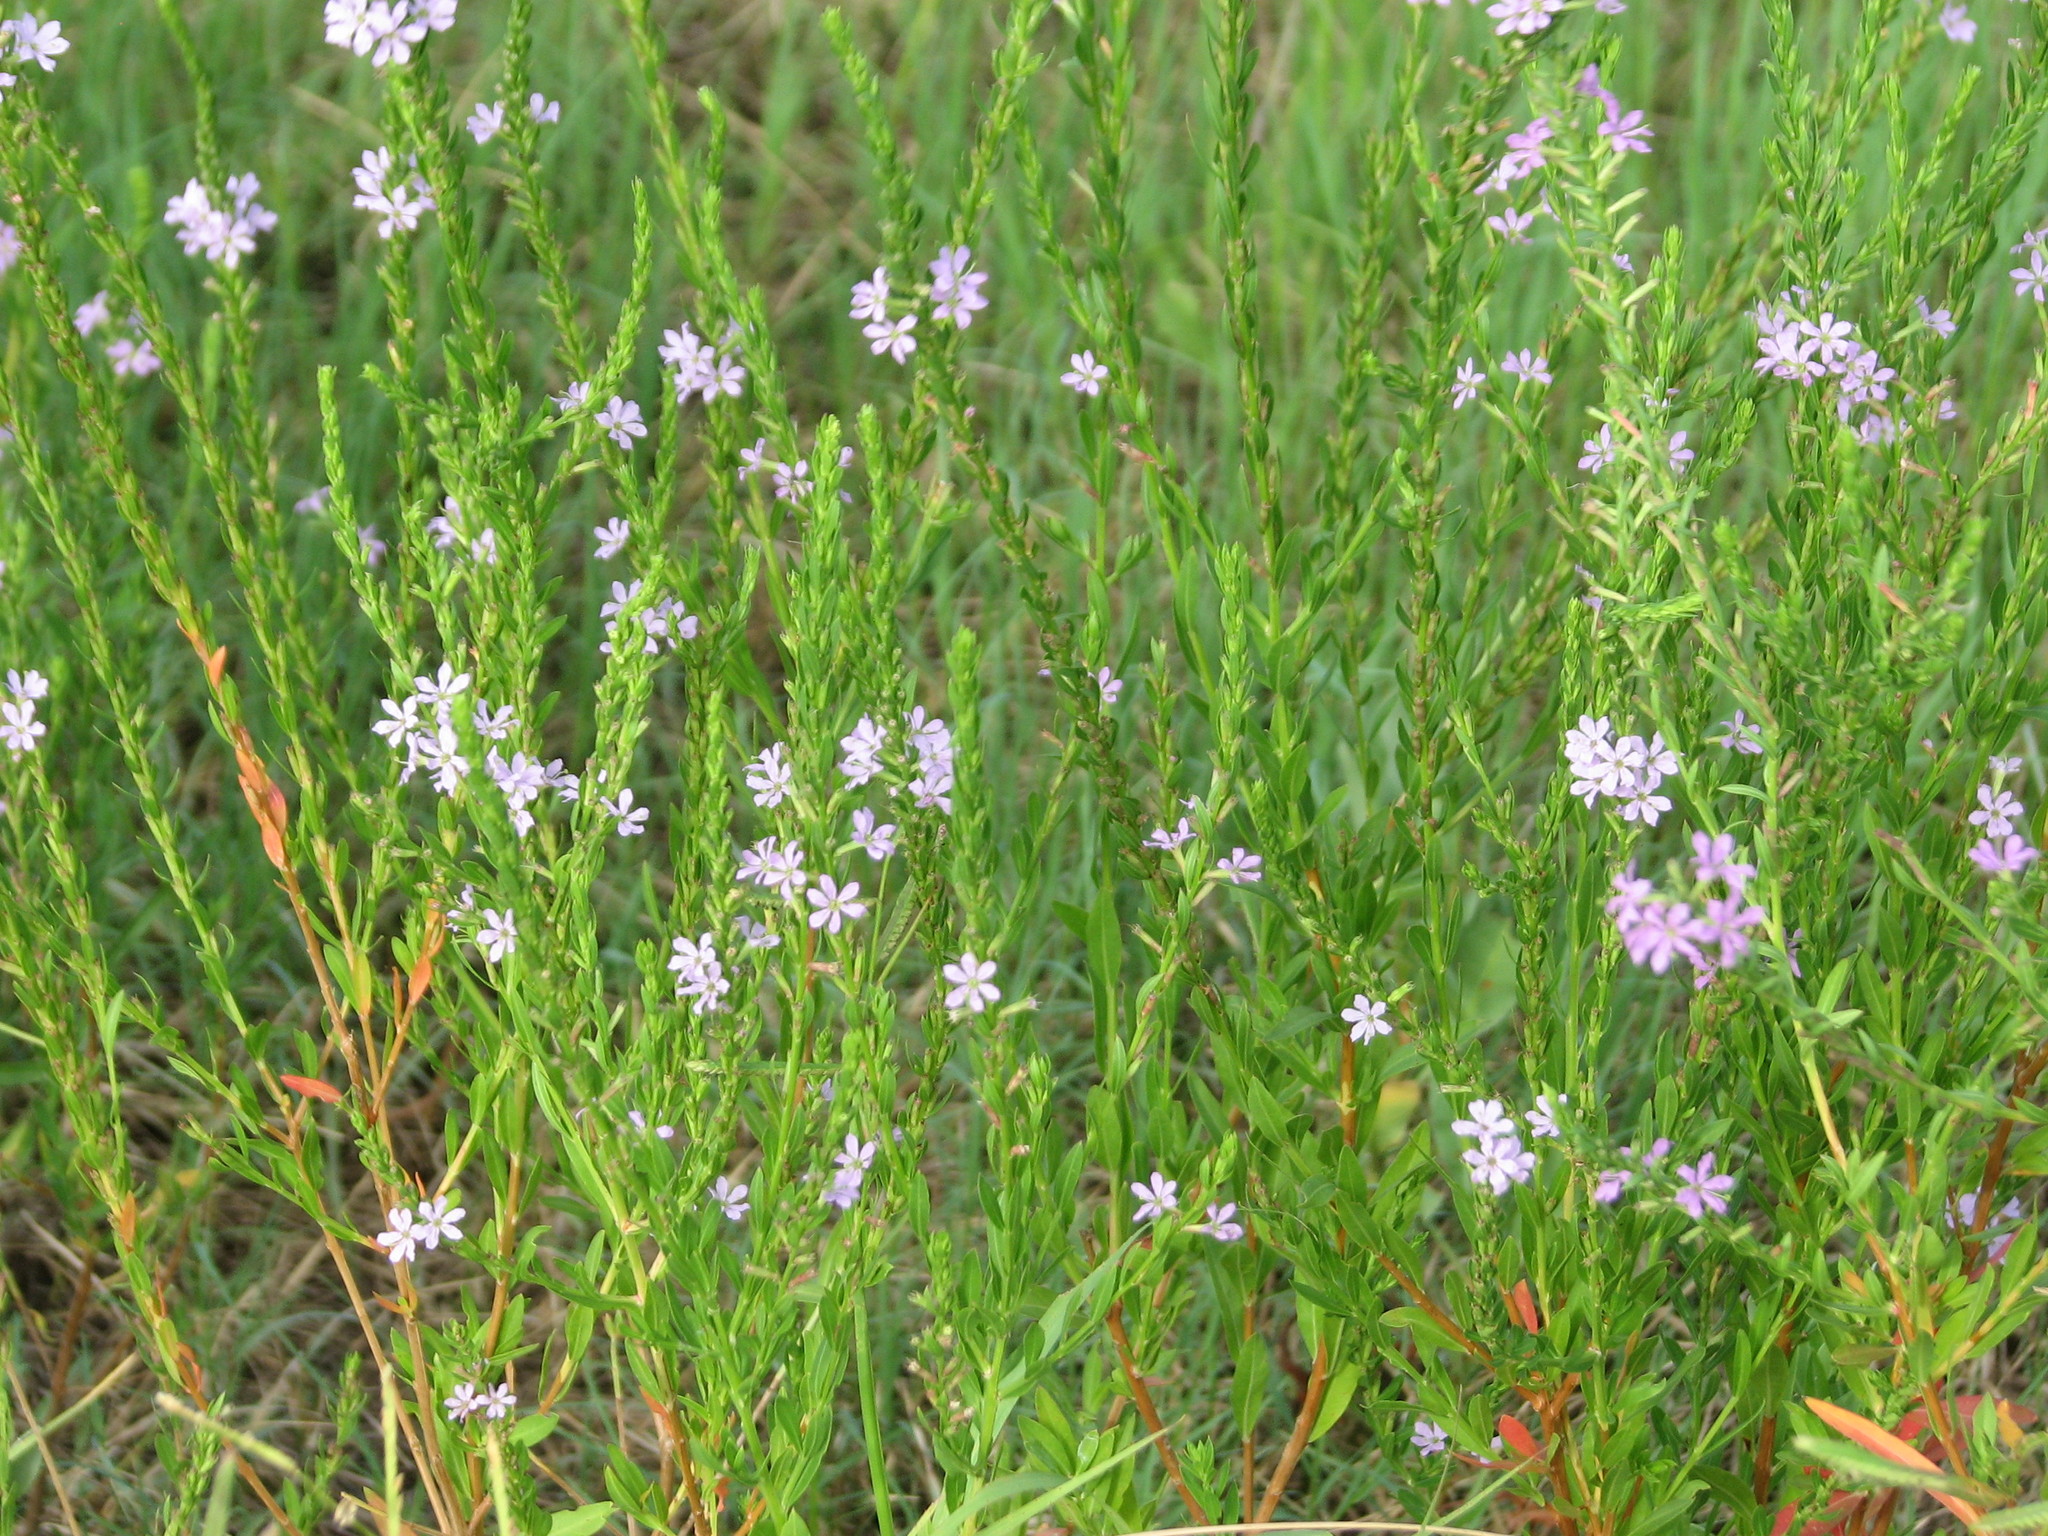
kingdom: Plantae
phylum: Tracheophyta
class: Magnoliopsida
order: Myrtales
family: Lythraceae
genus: Lythrum
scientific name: Lythrum alatum
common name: Winged loosestrife
